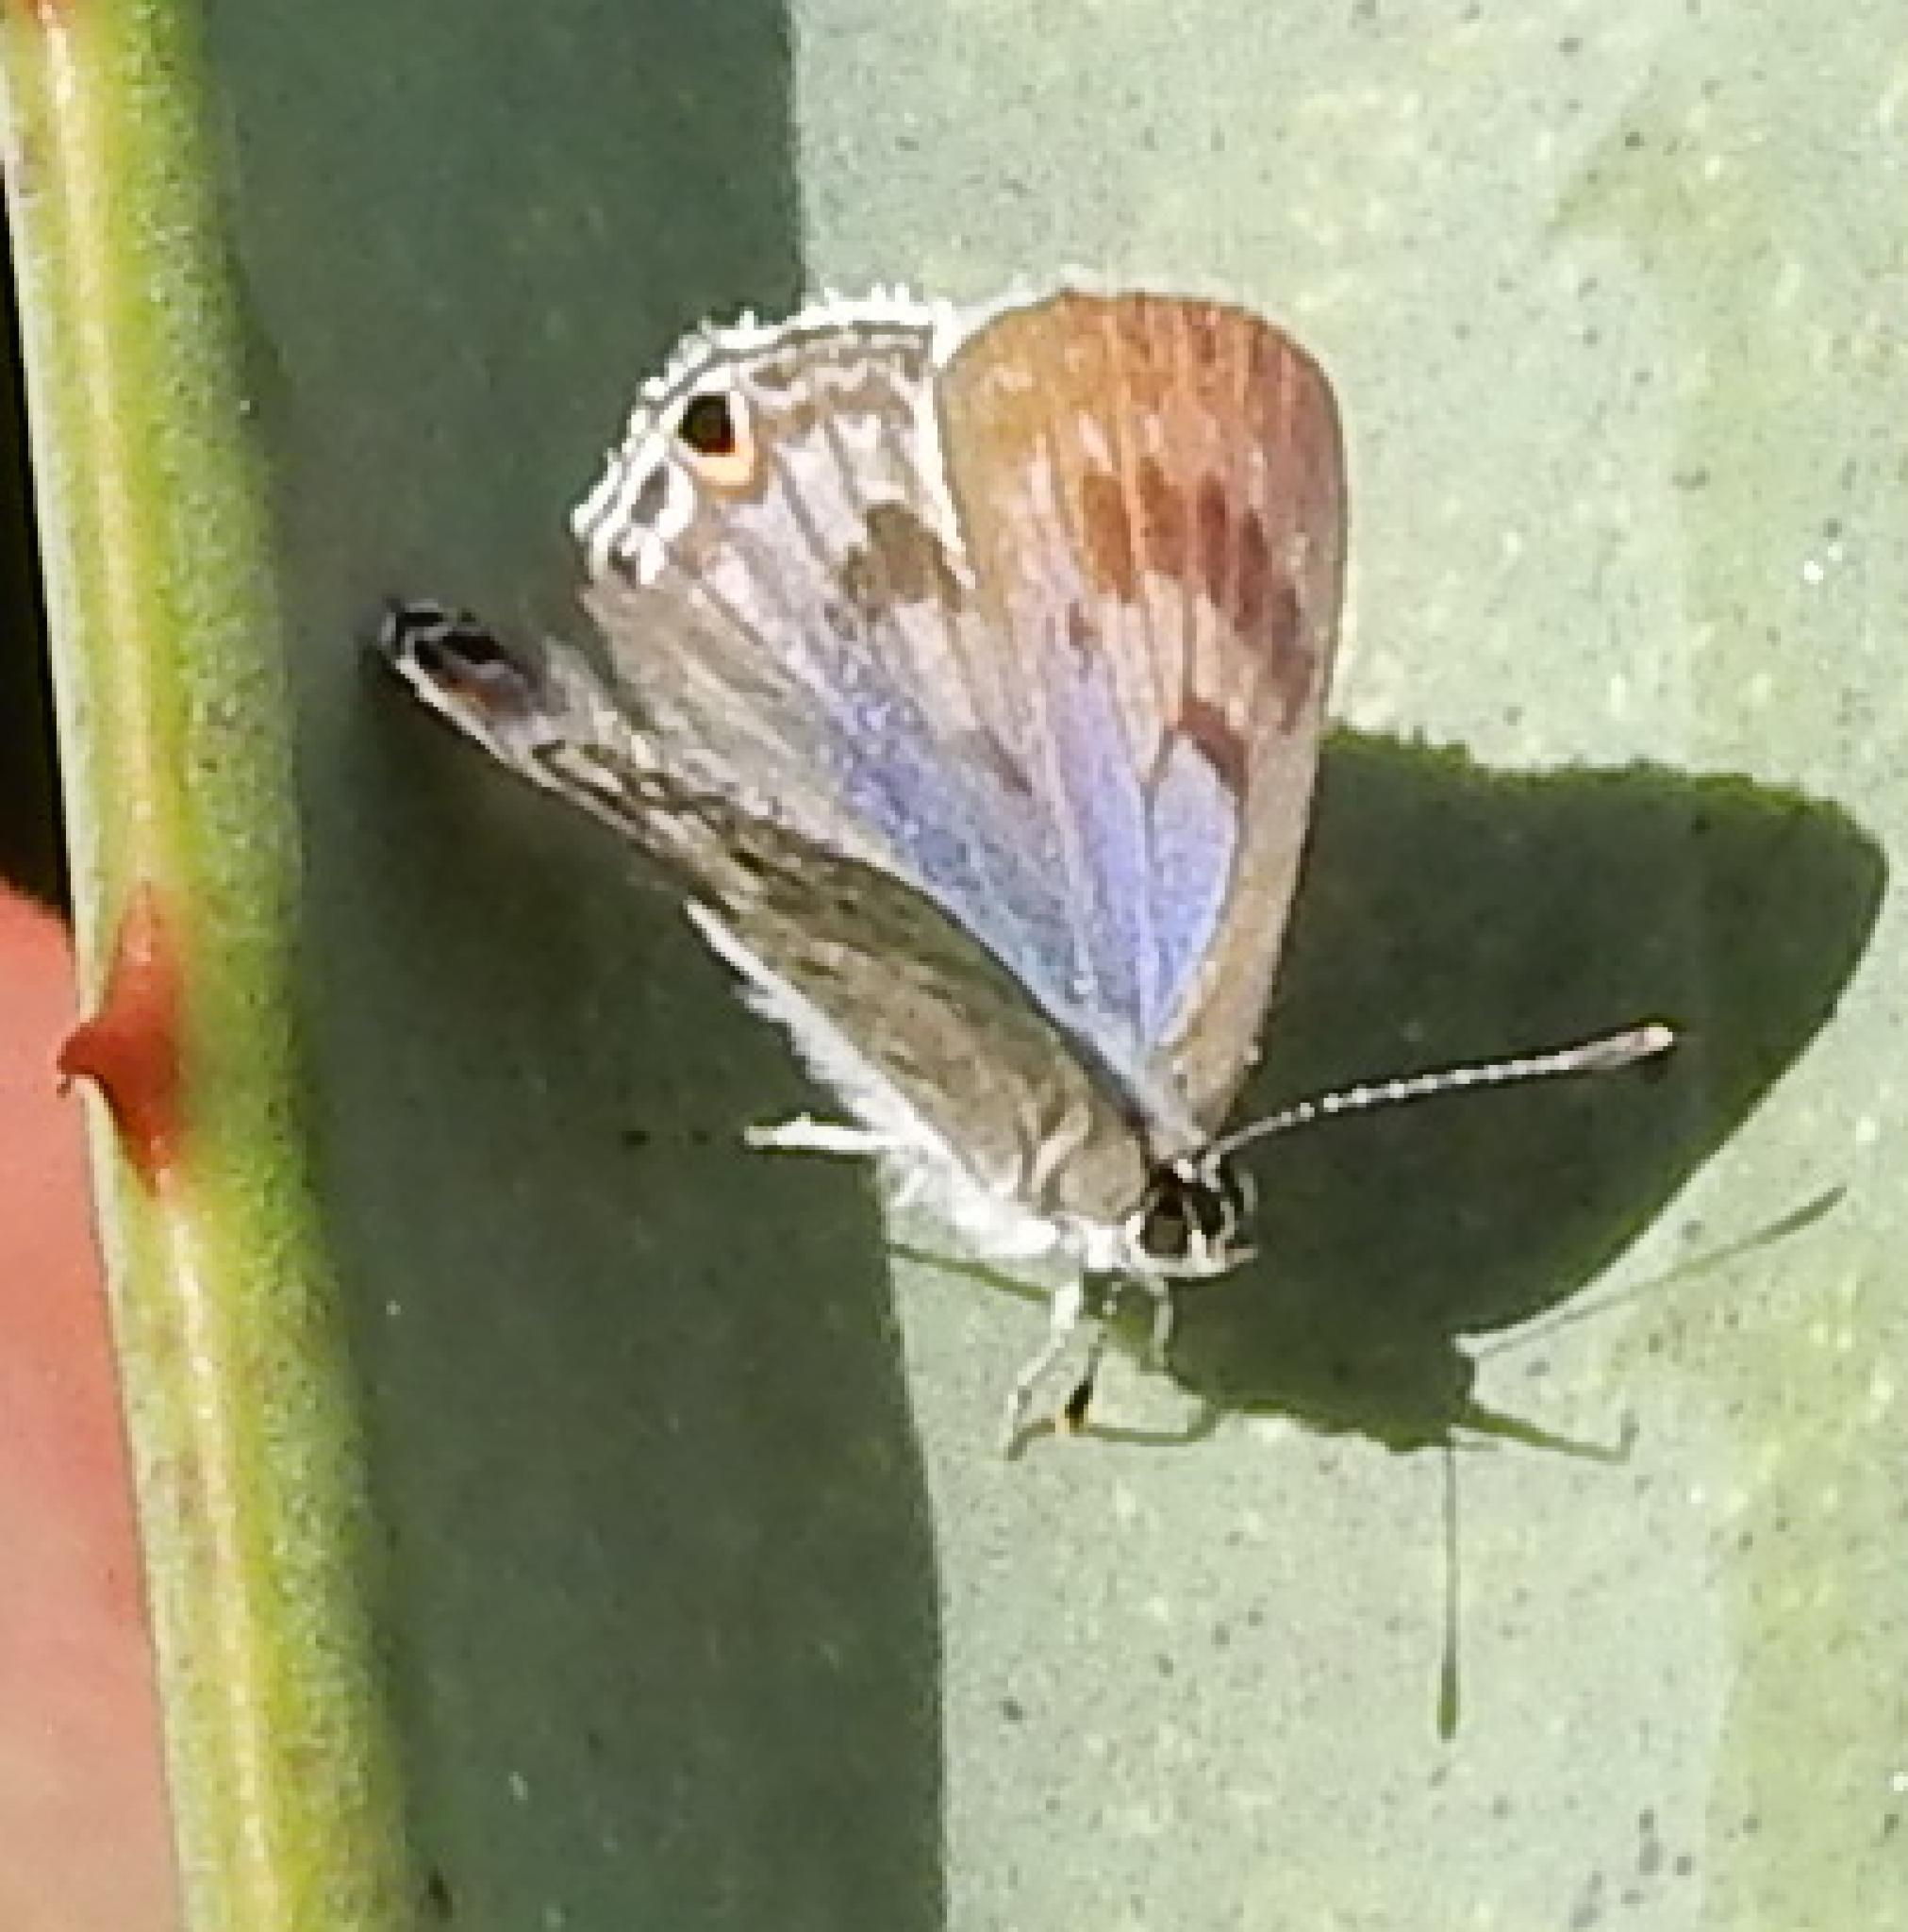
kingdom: Animalia
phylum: Arthropoda
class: Insecta
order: Lepidoptera
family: Lycaenidae
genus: Anthene
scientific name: Anthene definita
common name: Common ciliate blue
